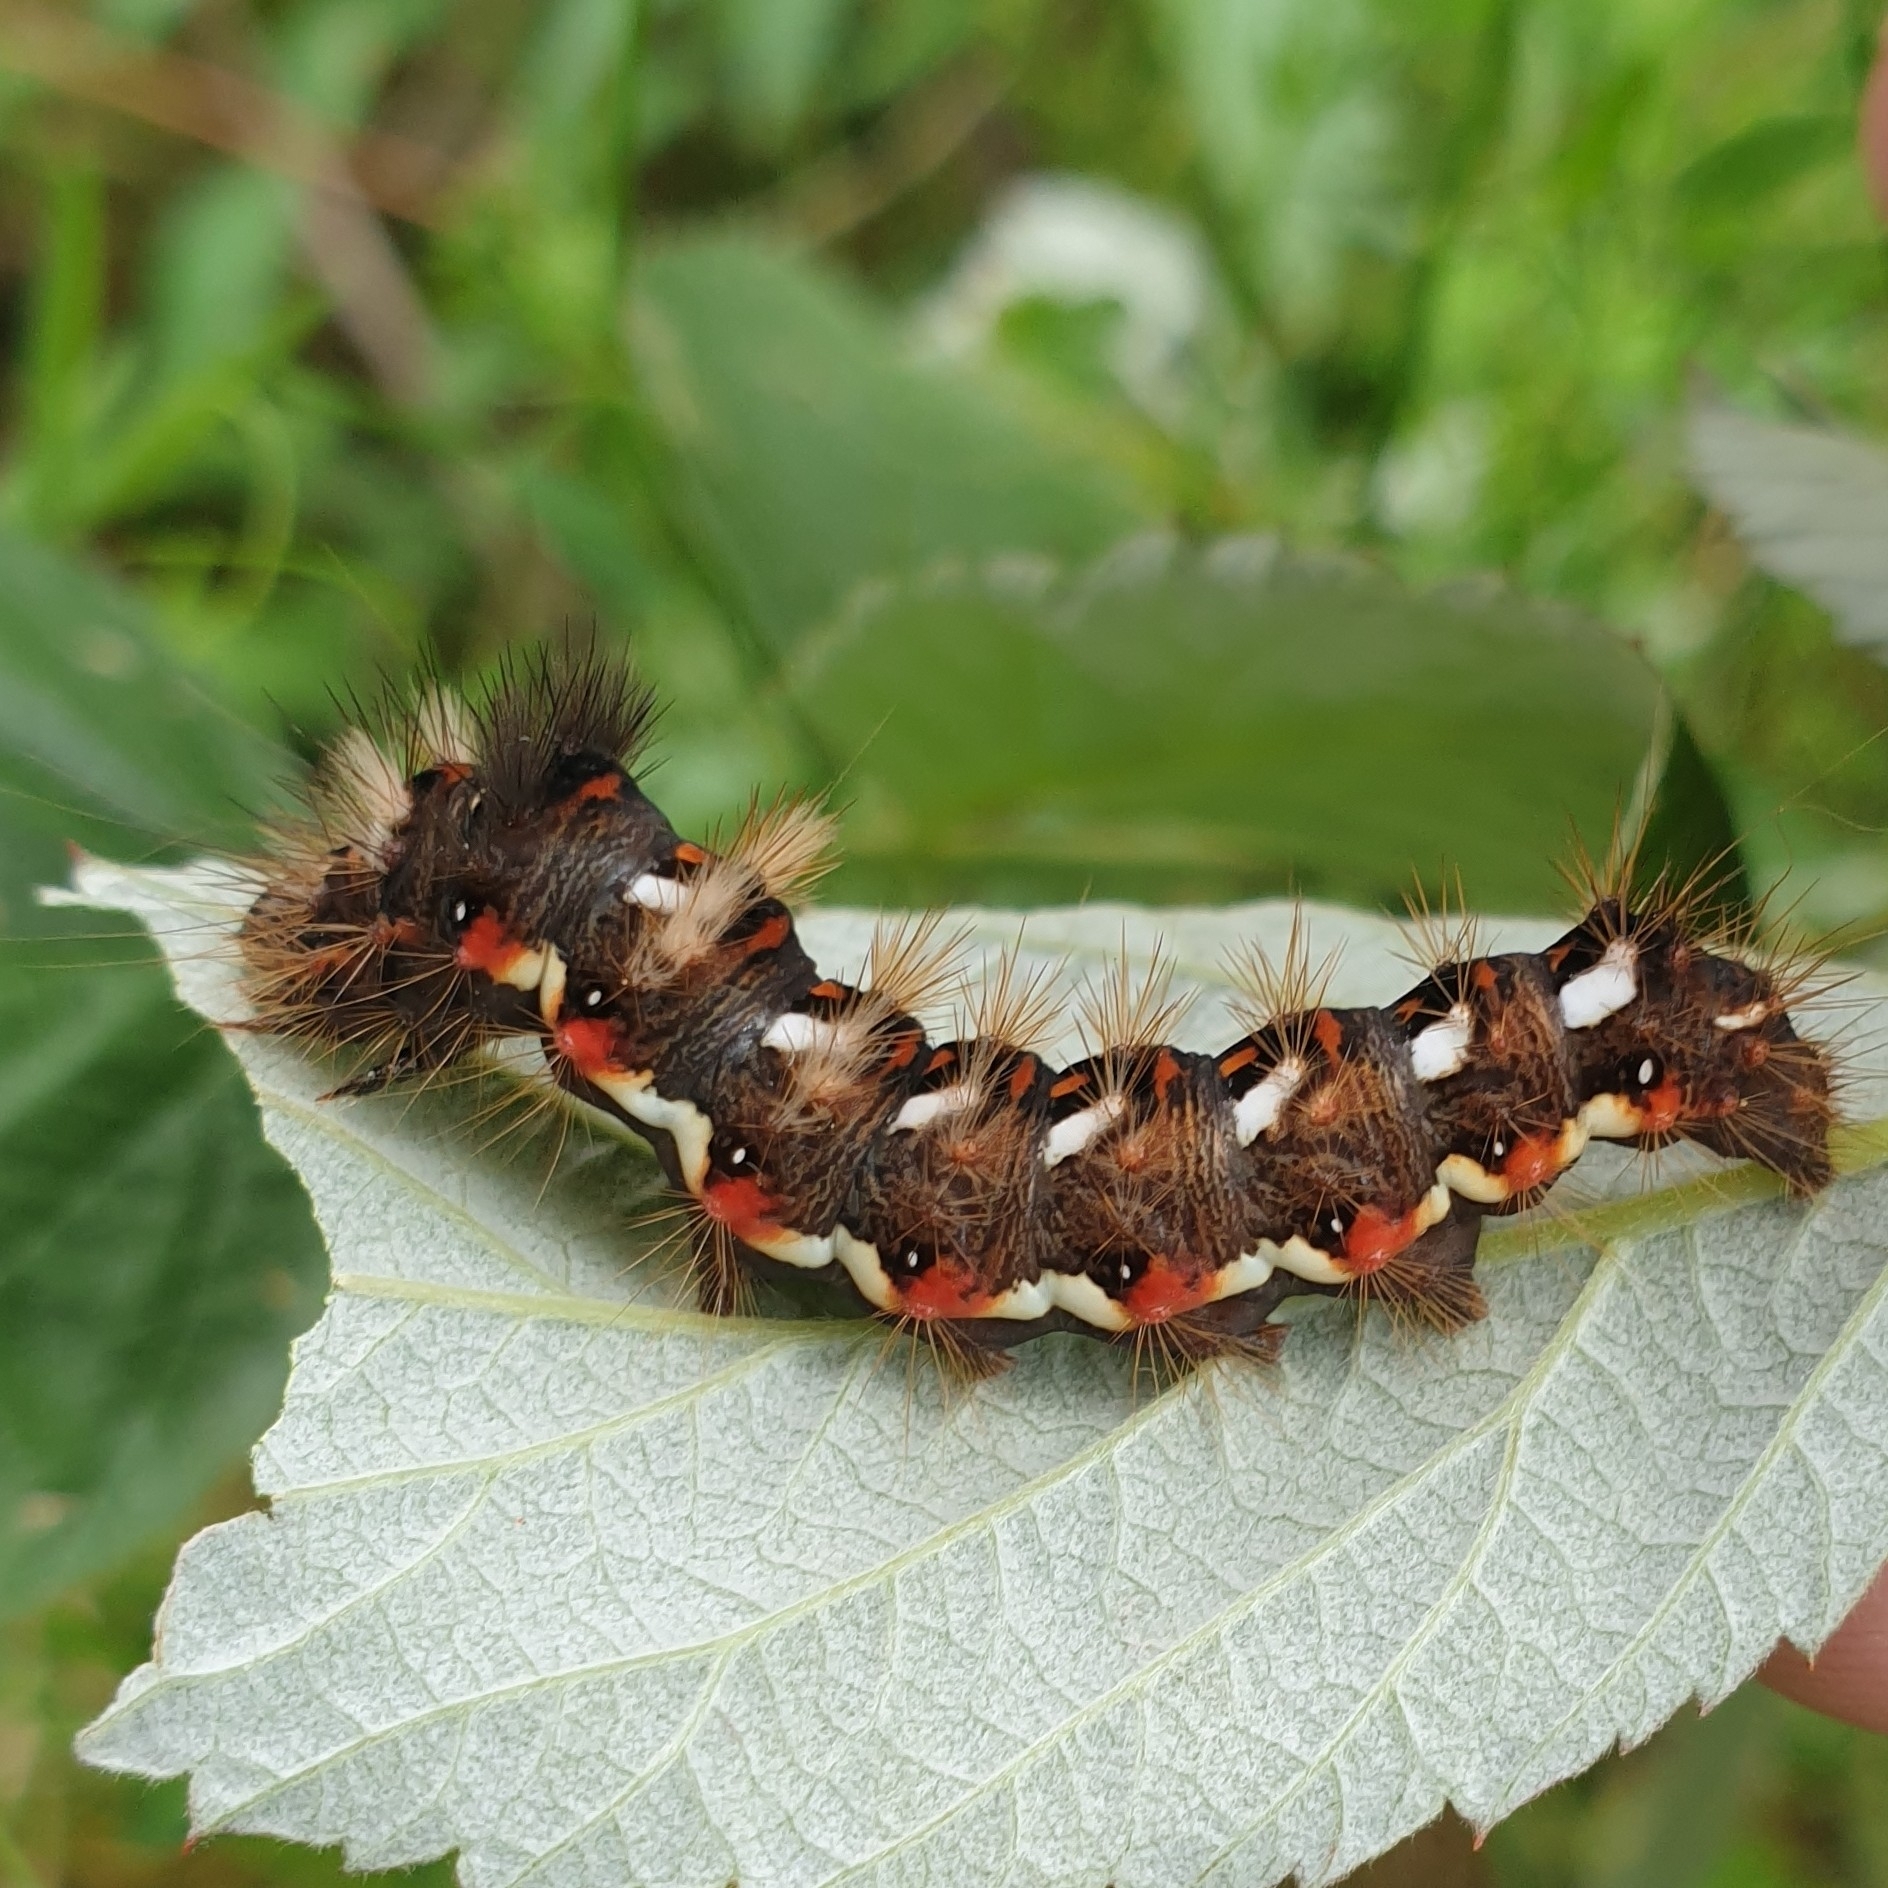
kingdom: Animalia
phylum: Arthropoda
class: Insecta
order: Lepidoptera
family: Noctuidae
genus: Acronicta
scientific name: Acronicta rumicis
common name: Knot grass
